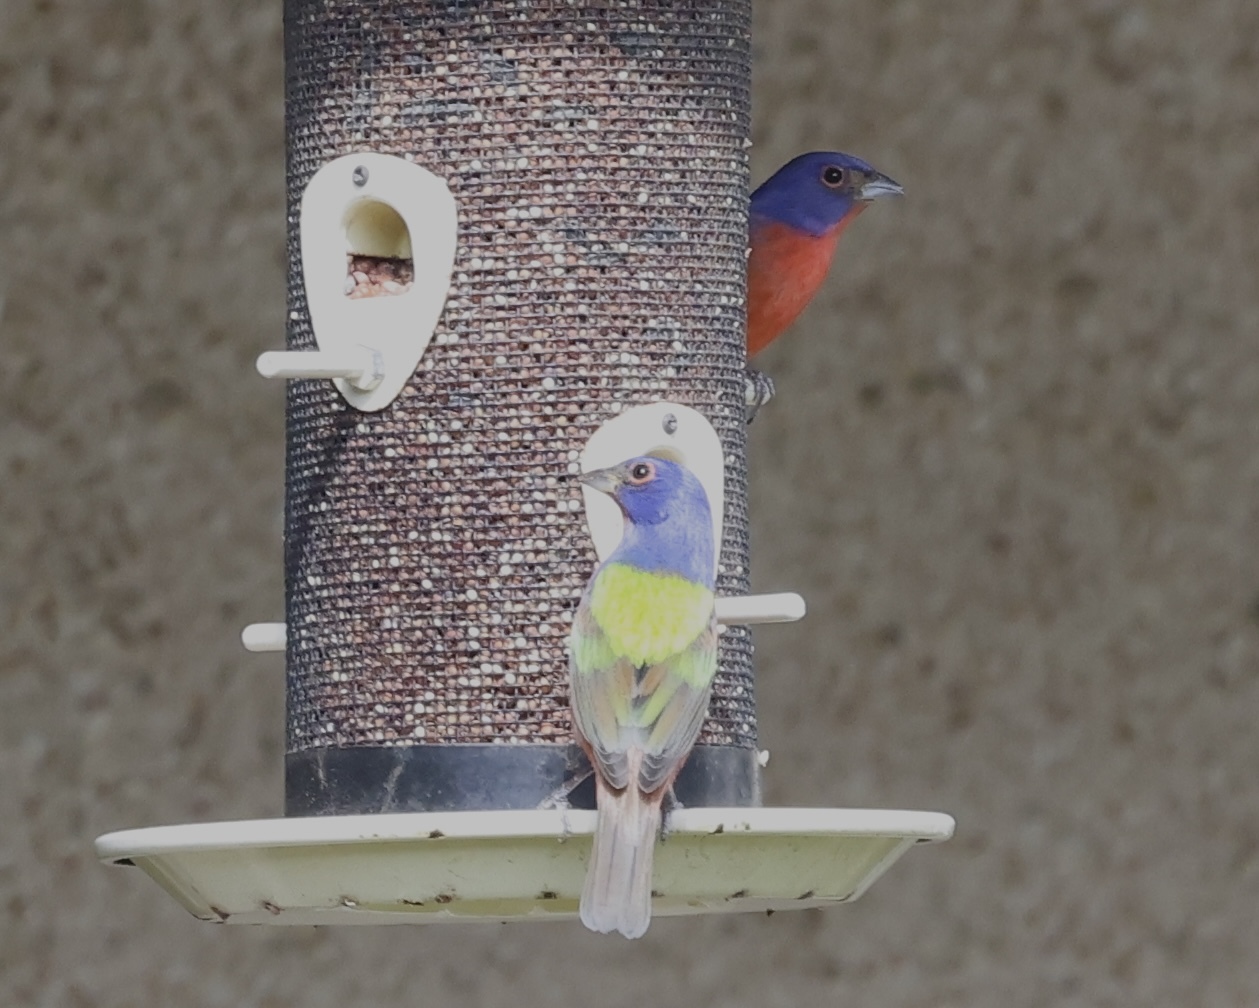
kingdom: Animalia
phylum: Chordata
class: Aves
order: Passeriformes
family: Cardinalidae
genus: Passerina
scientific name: Passerina ciris
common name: Painted bunting
